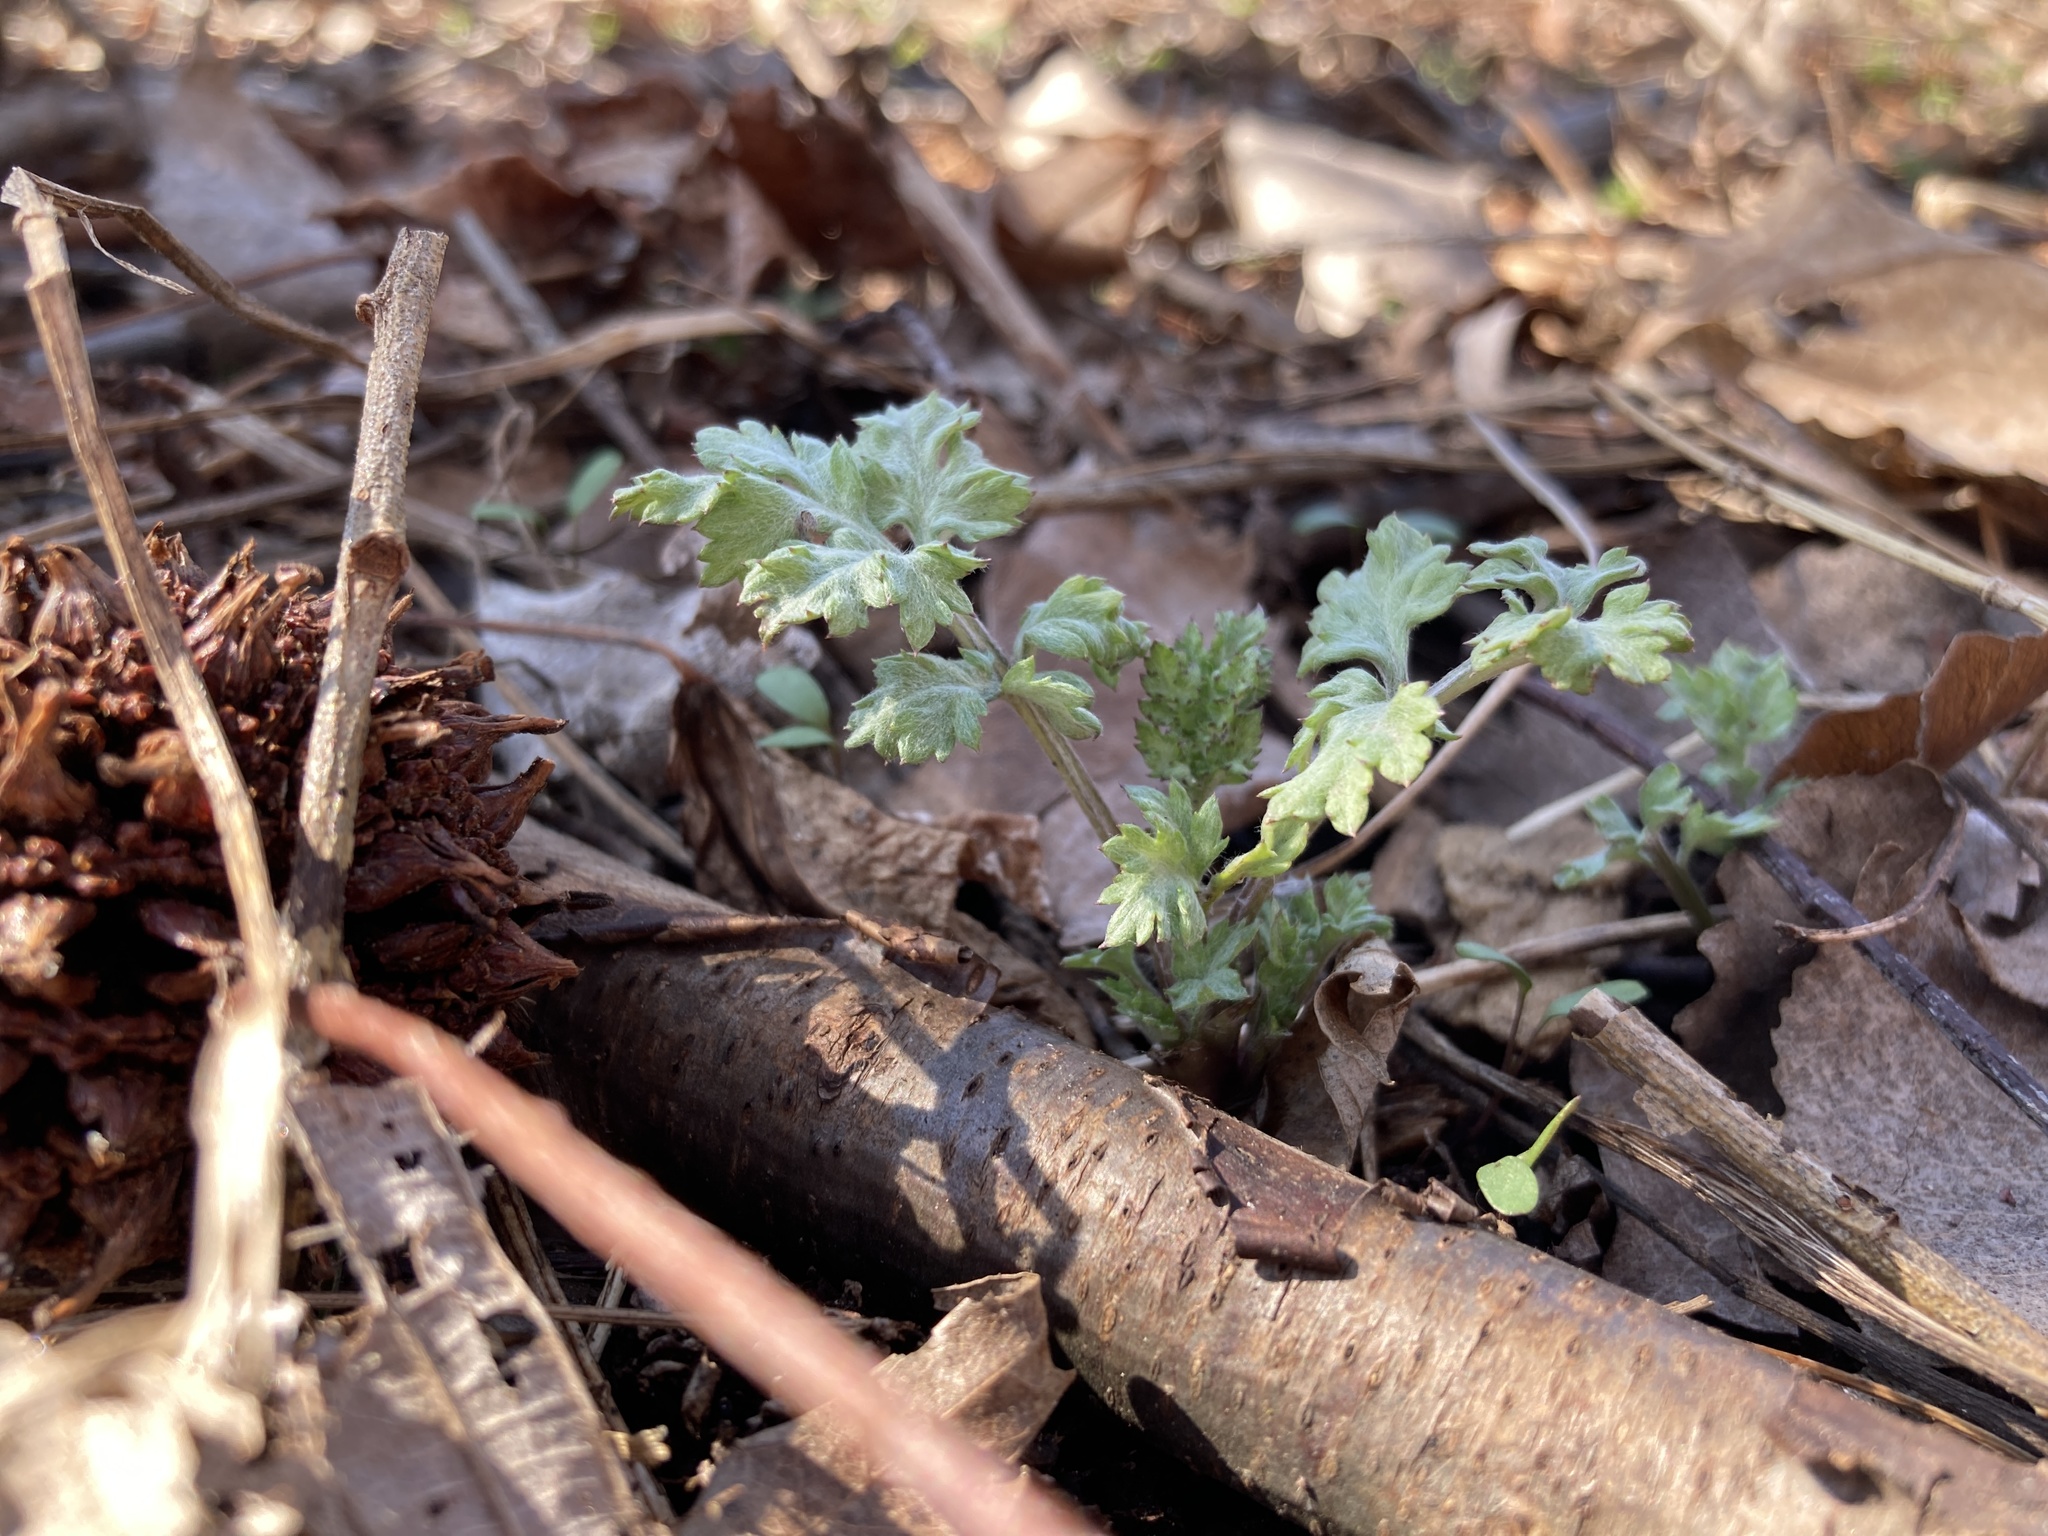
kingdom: Plantae
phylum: Tracheophyta
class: Magnoliopsida
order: Asterales
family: Asteraceae
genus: Artemisia
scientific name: Artemisia vulgaris
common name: Mugwort
